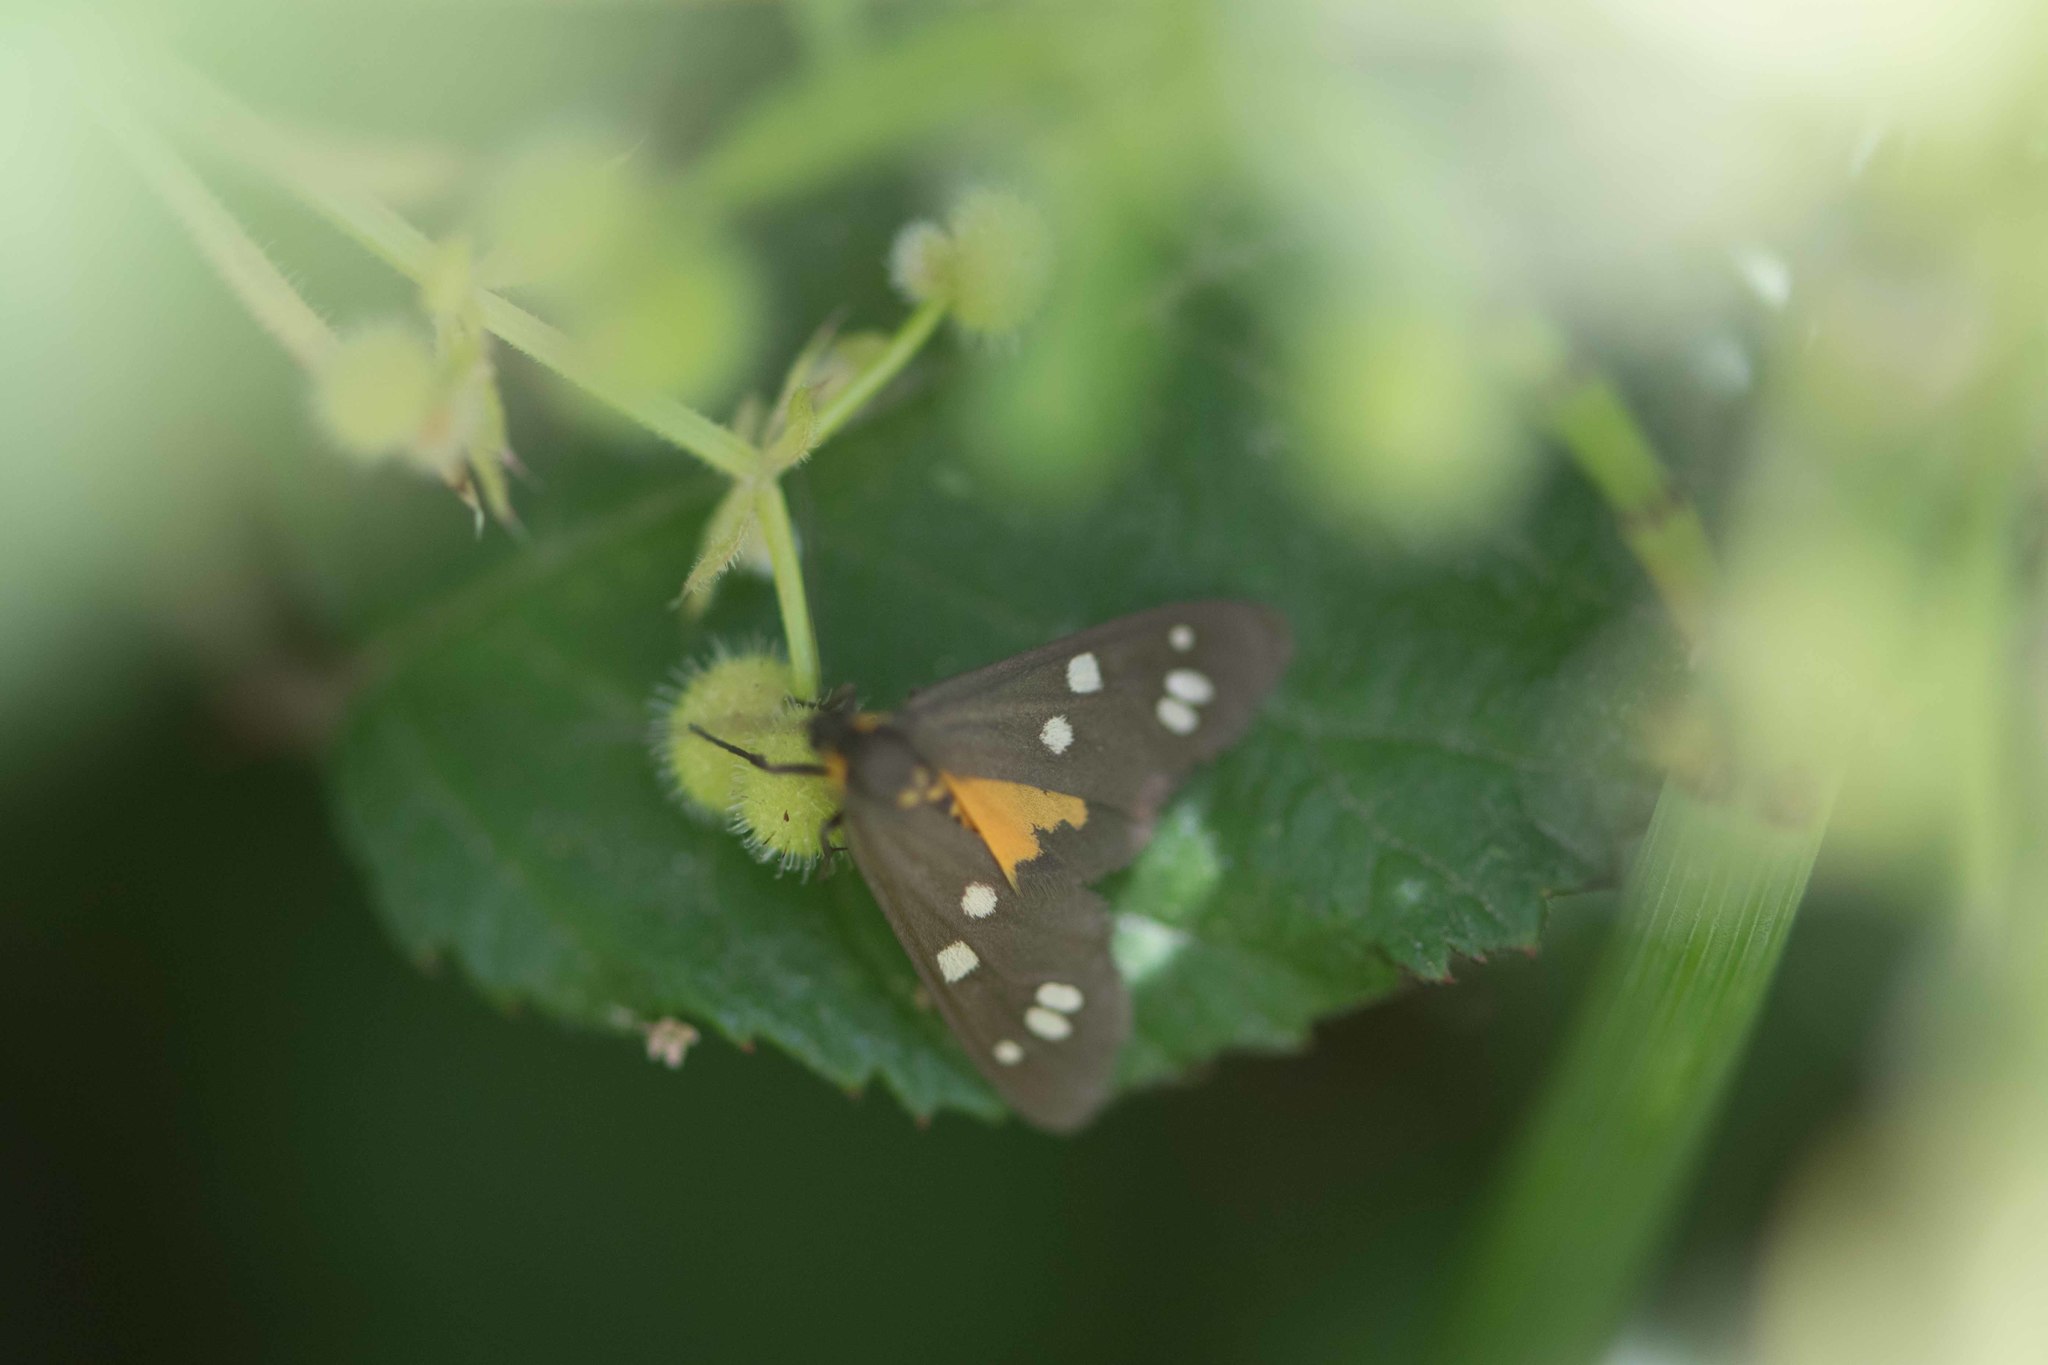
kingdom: Animalia
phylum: Arthropoda
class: Insecta
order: Lepidoptera
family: Erebidae
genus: Dysauxes
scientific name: Dysauxes punctata
